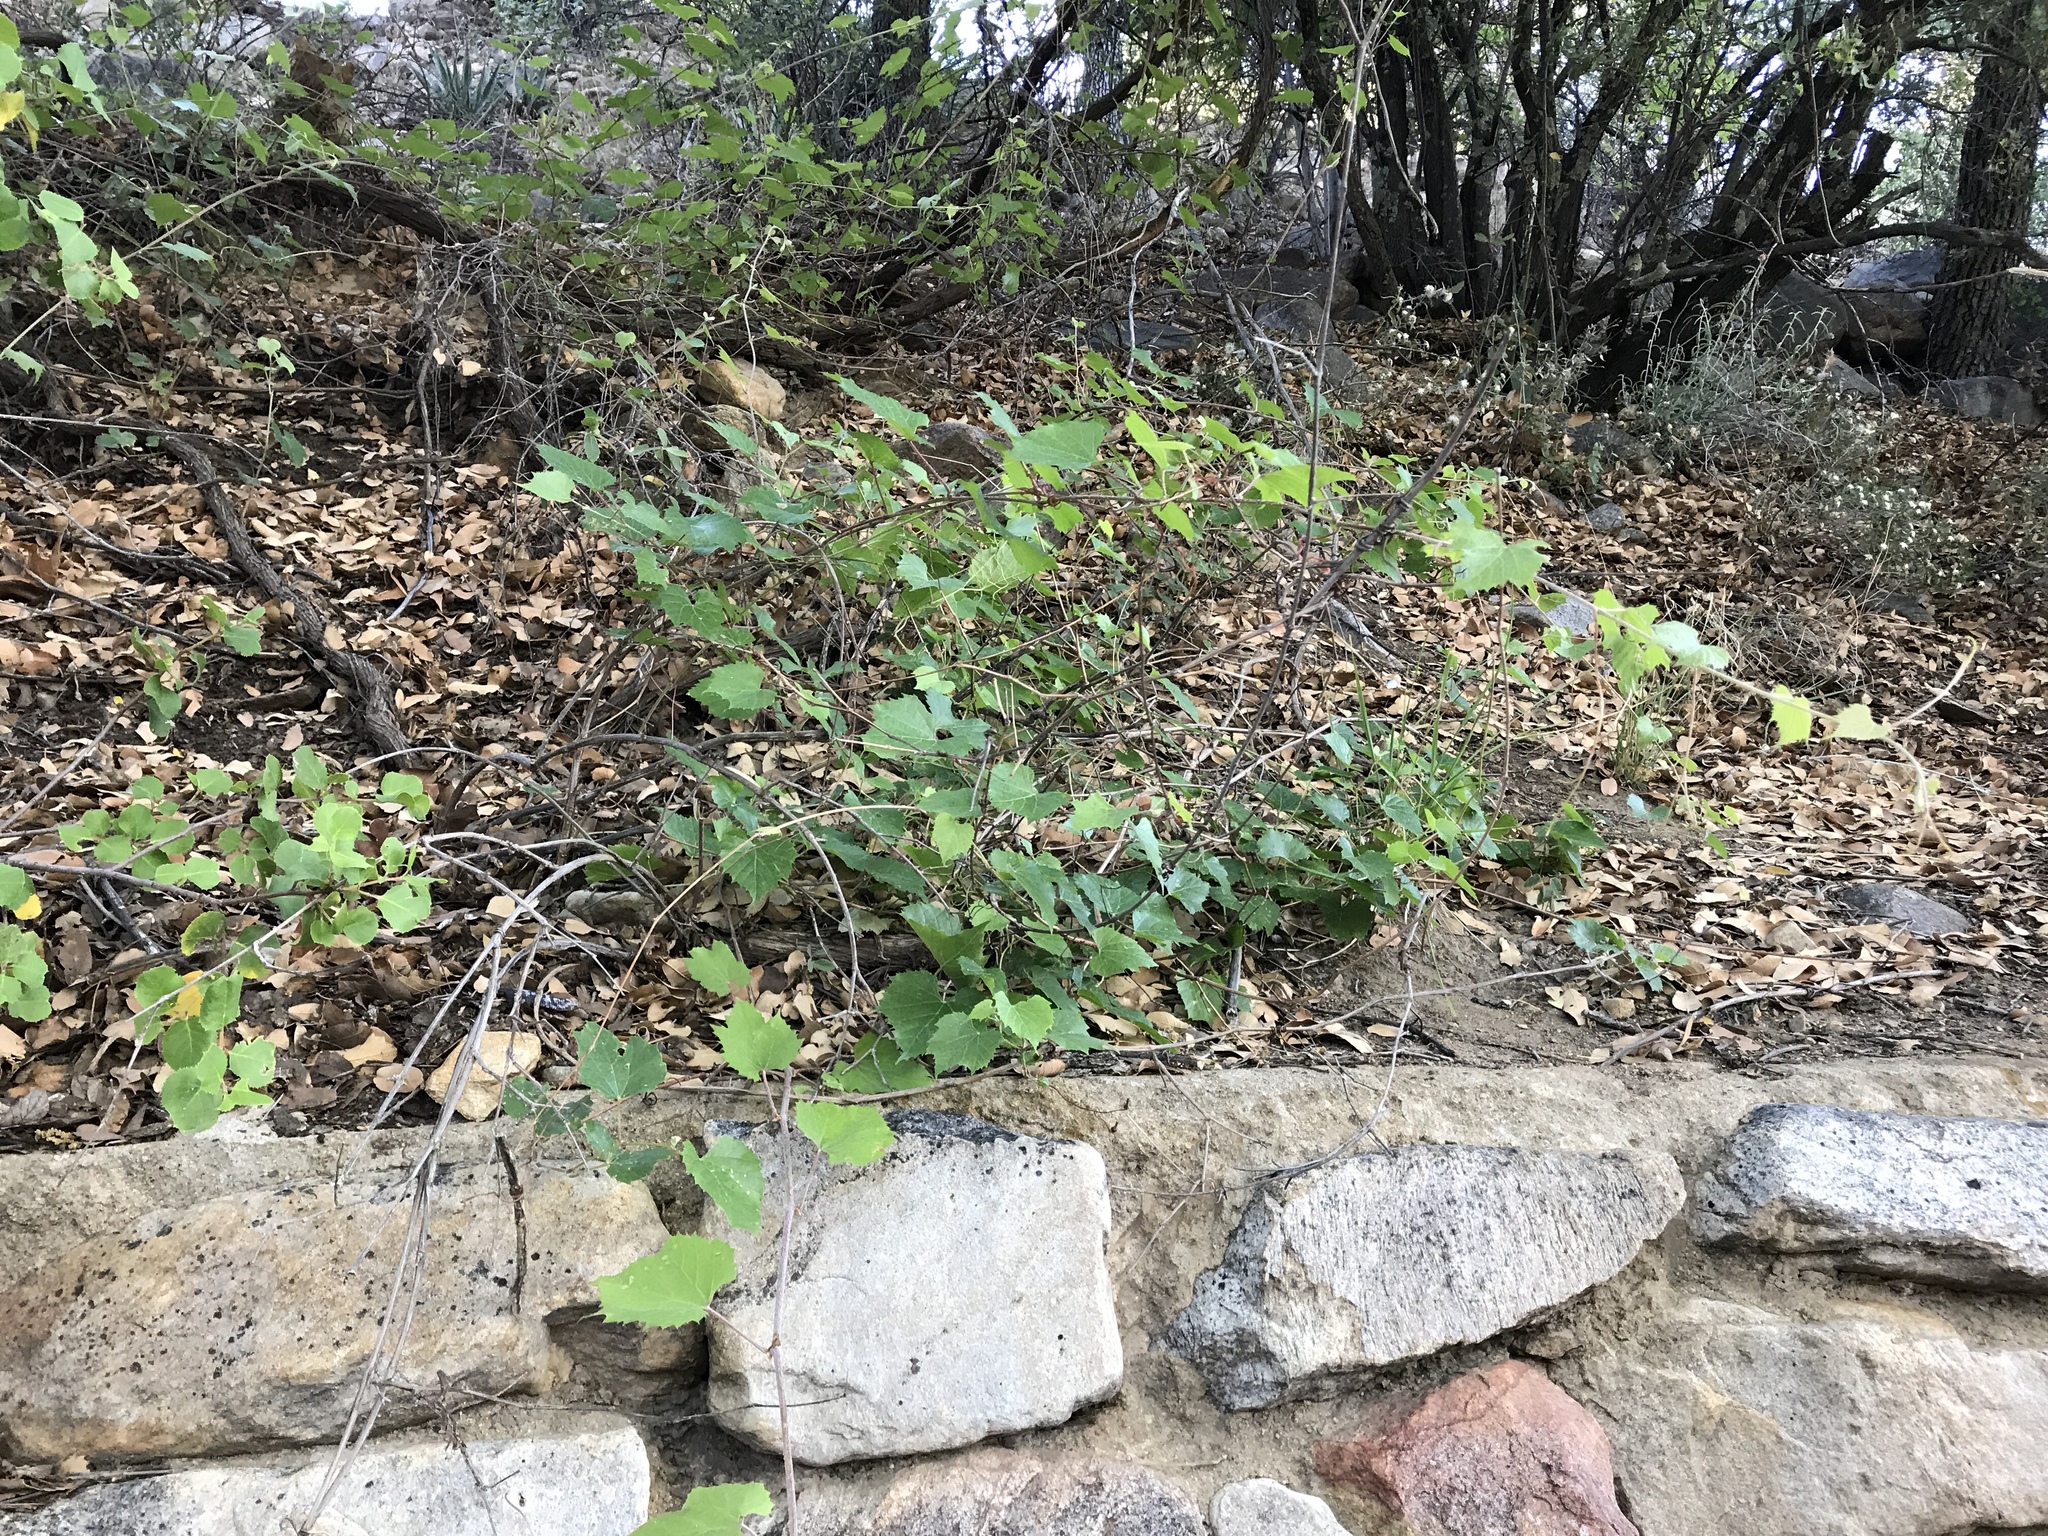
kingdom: Plantae
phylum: Tracheophyta
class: Magnoliopsida
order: Vitales
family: Vitaceae
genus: Vitis
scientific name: Vitis arizonica
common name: Canyon grape
